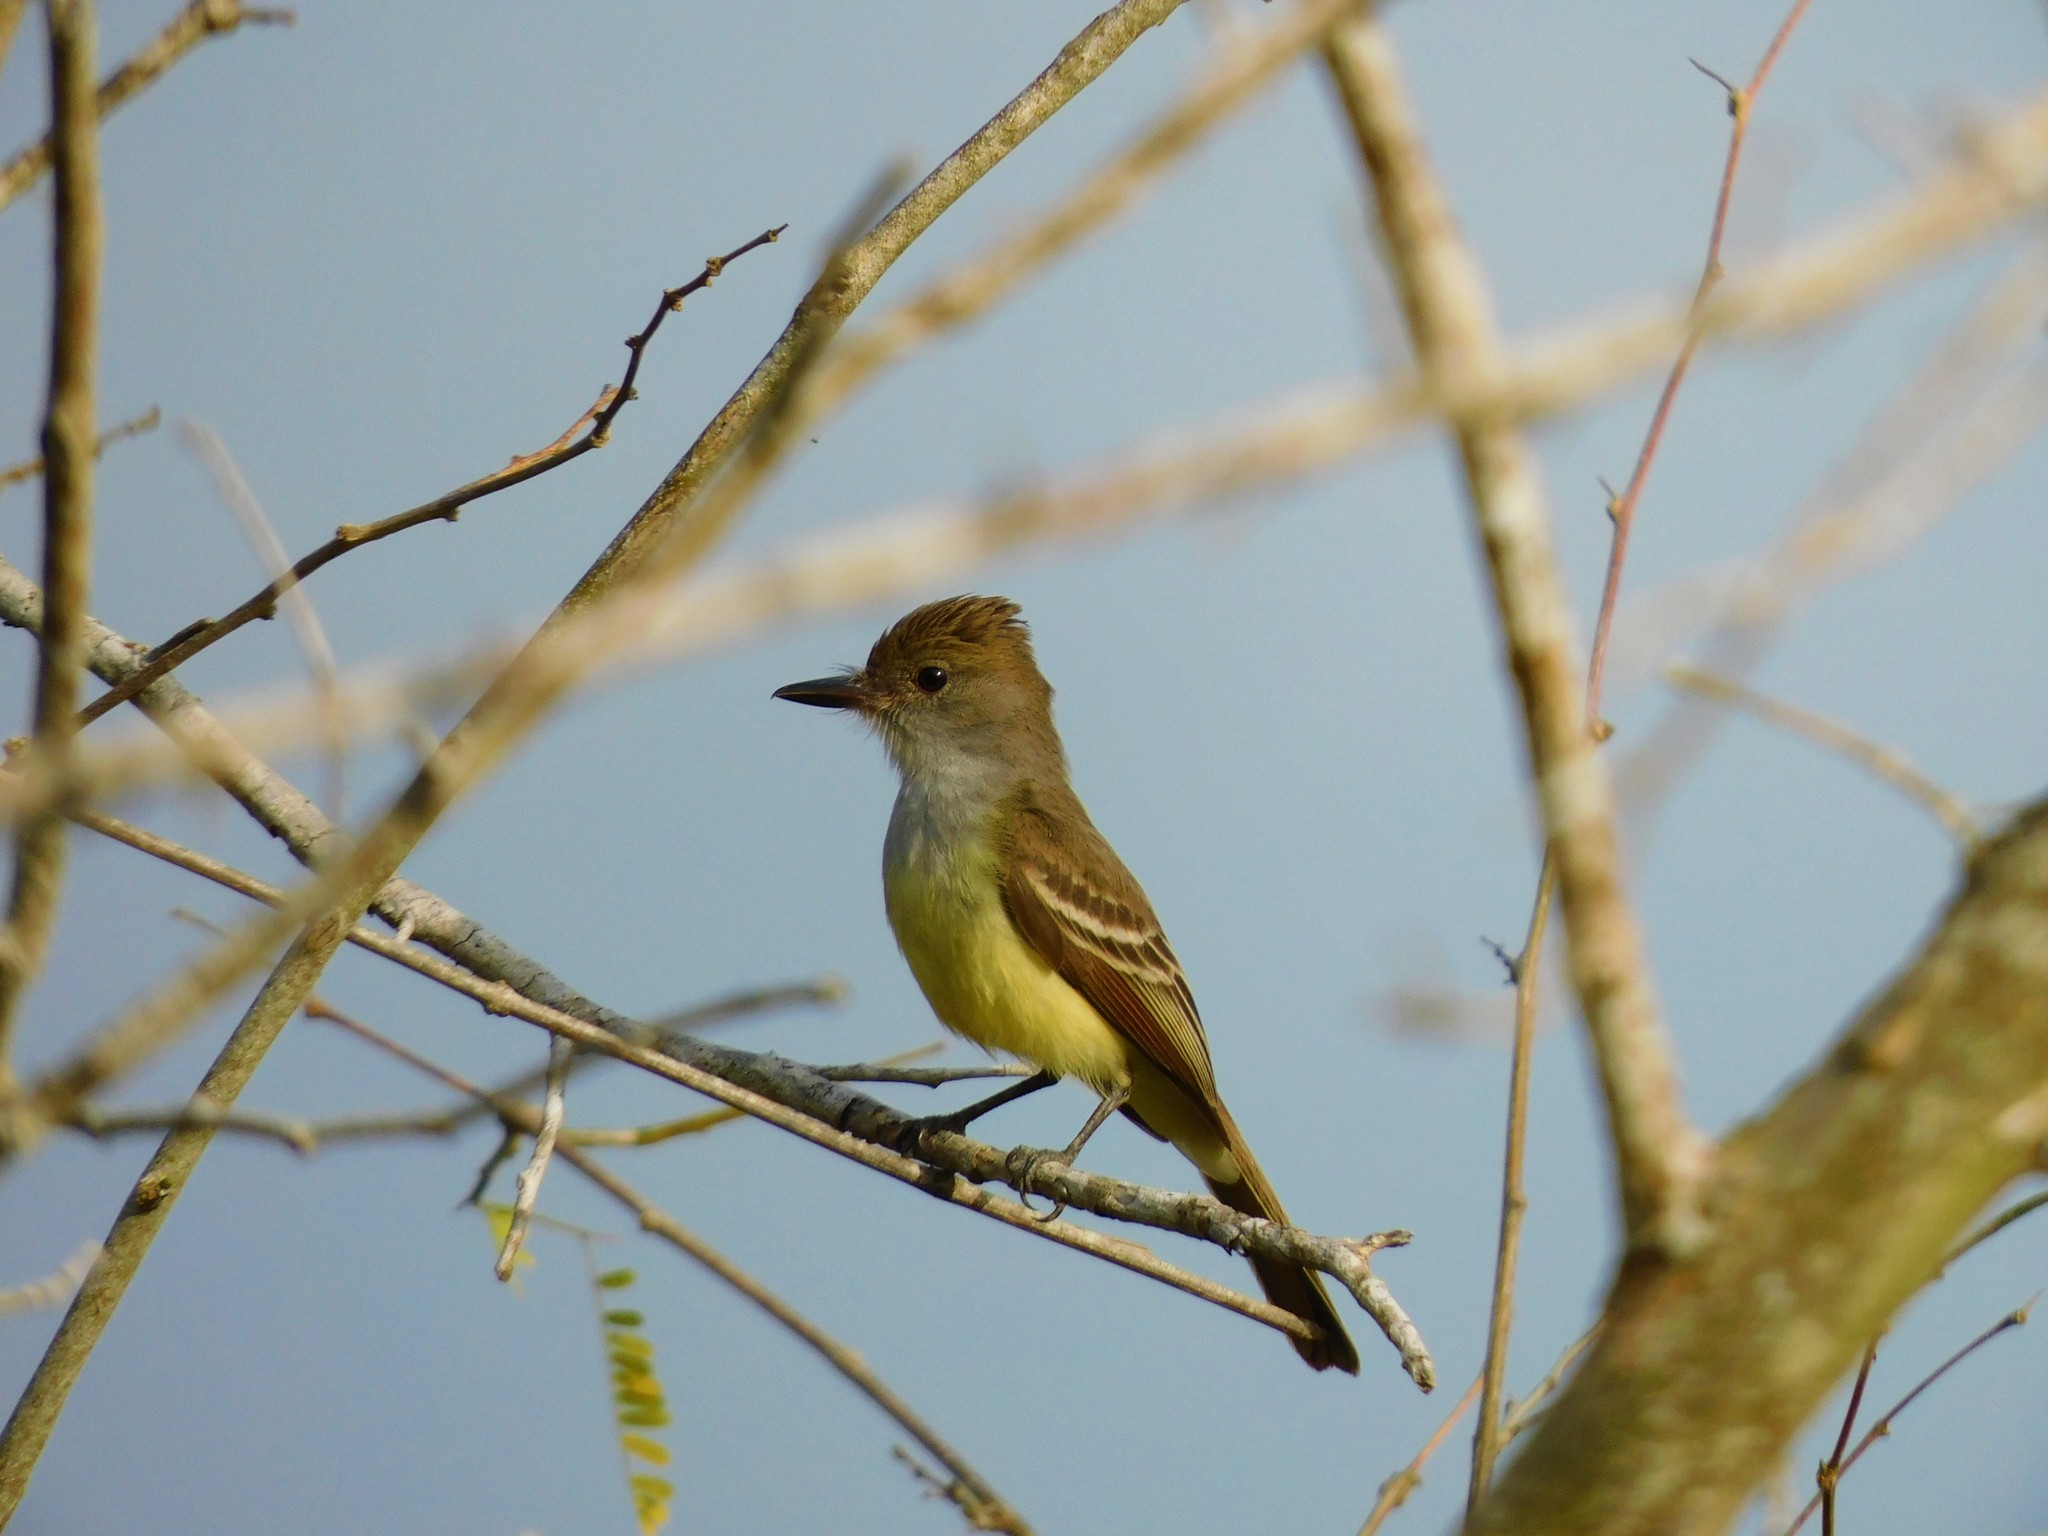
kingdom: Animalia
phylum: Chordata
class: Aves
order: Passeriformes
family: Tyrannidae
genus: Myiarchus
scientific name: Myiarchus tyrannulus
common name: Brown-crested flycatcher
